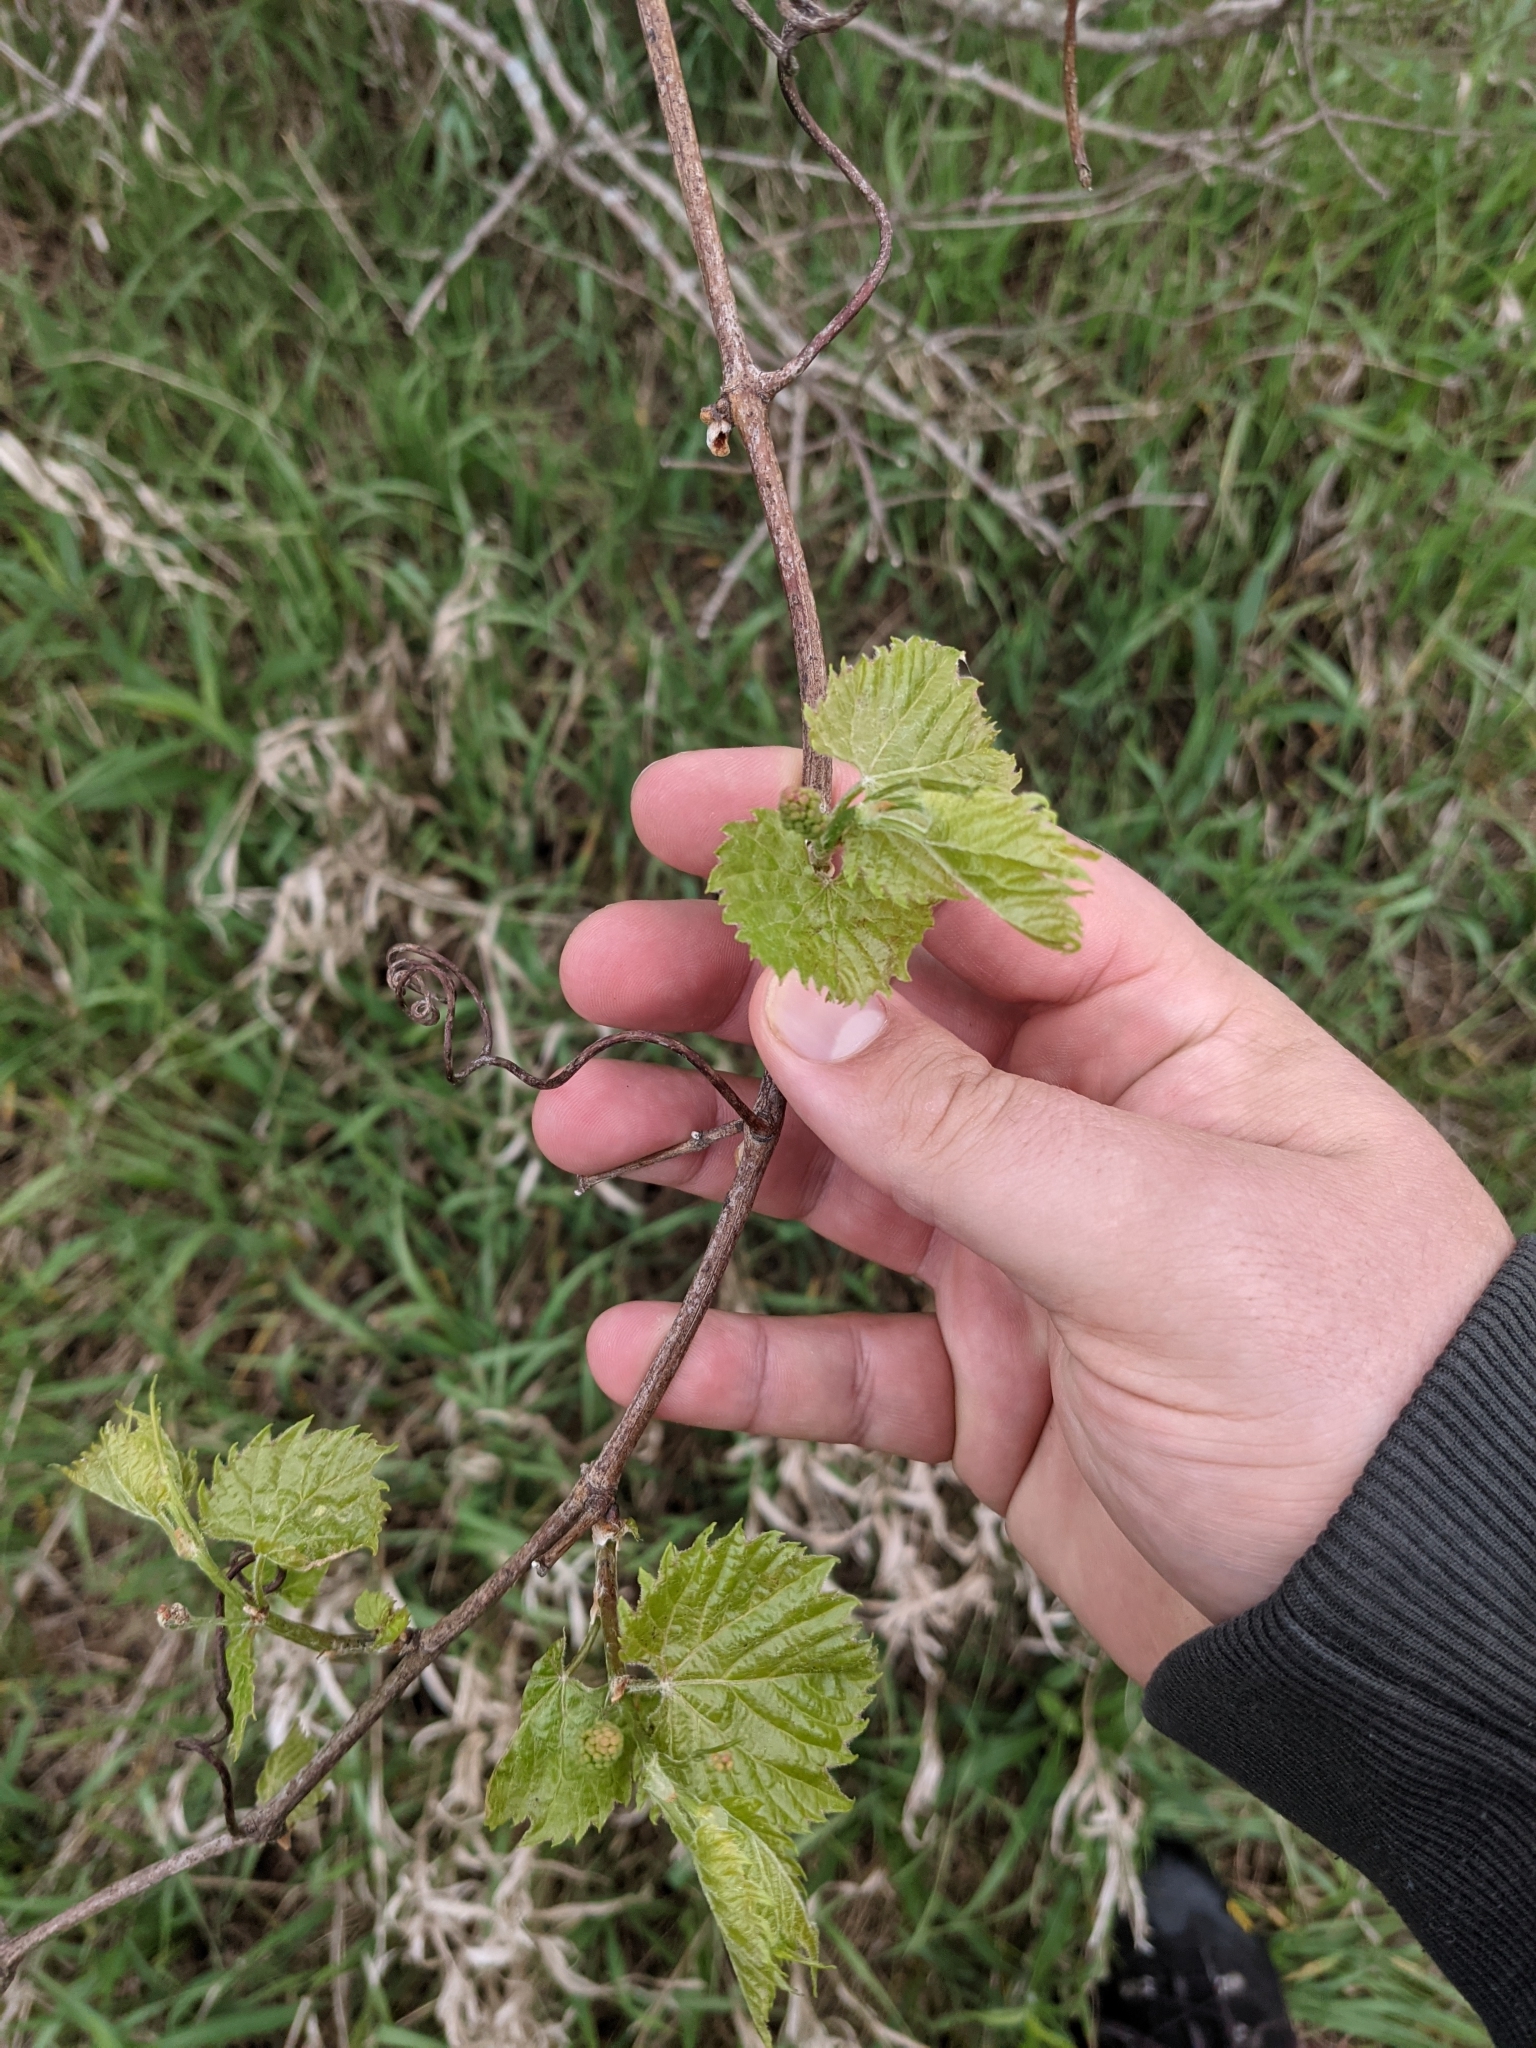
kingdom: Plantae
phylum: Tracheophyta
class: Magnoliopsida
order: Vitales
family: Vitaceae
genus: Vitis
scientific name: Vitis riparia
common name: Frost grape
